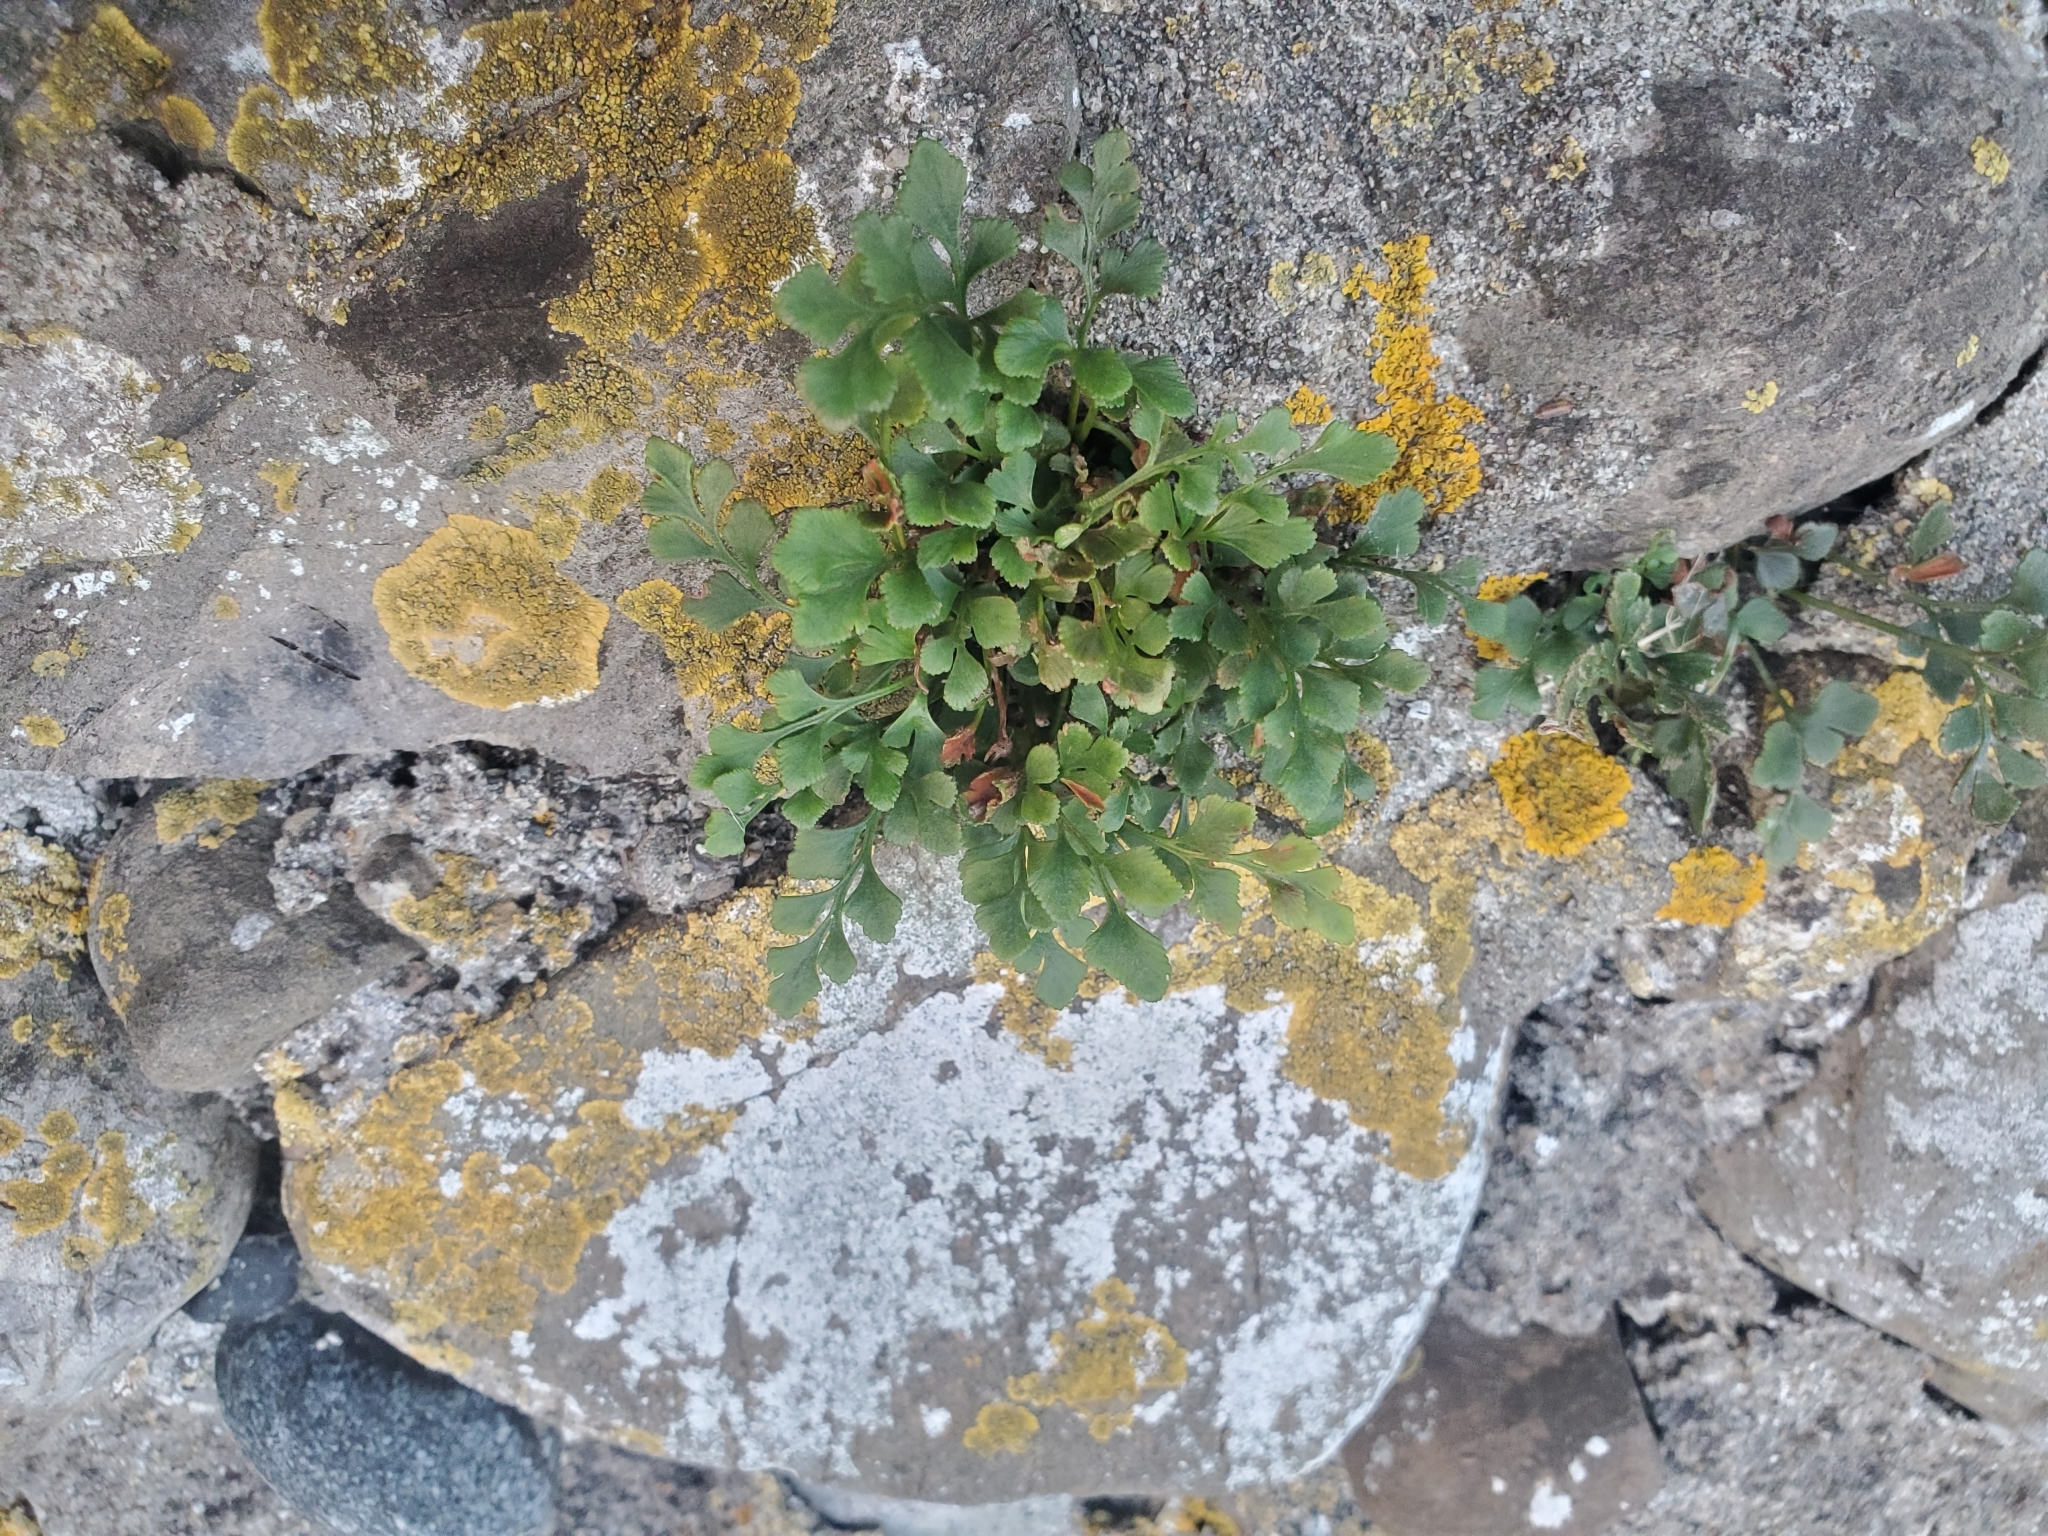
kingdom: Plantae
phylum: Tracheophyta
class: Polypodiopsida
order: Polypodiales
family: Aspleniaceae
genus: Asplenium
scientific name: Asplenium ruta-muraria
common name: Wall-rue
